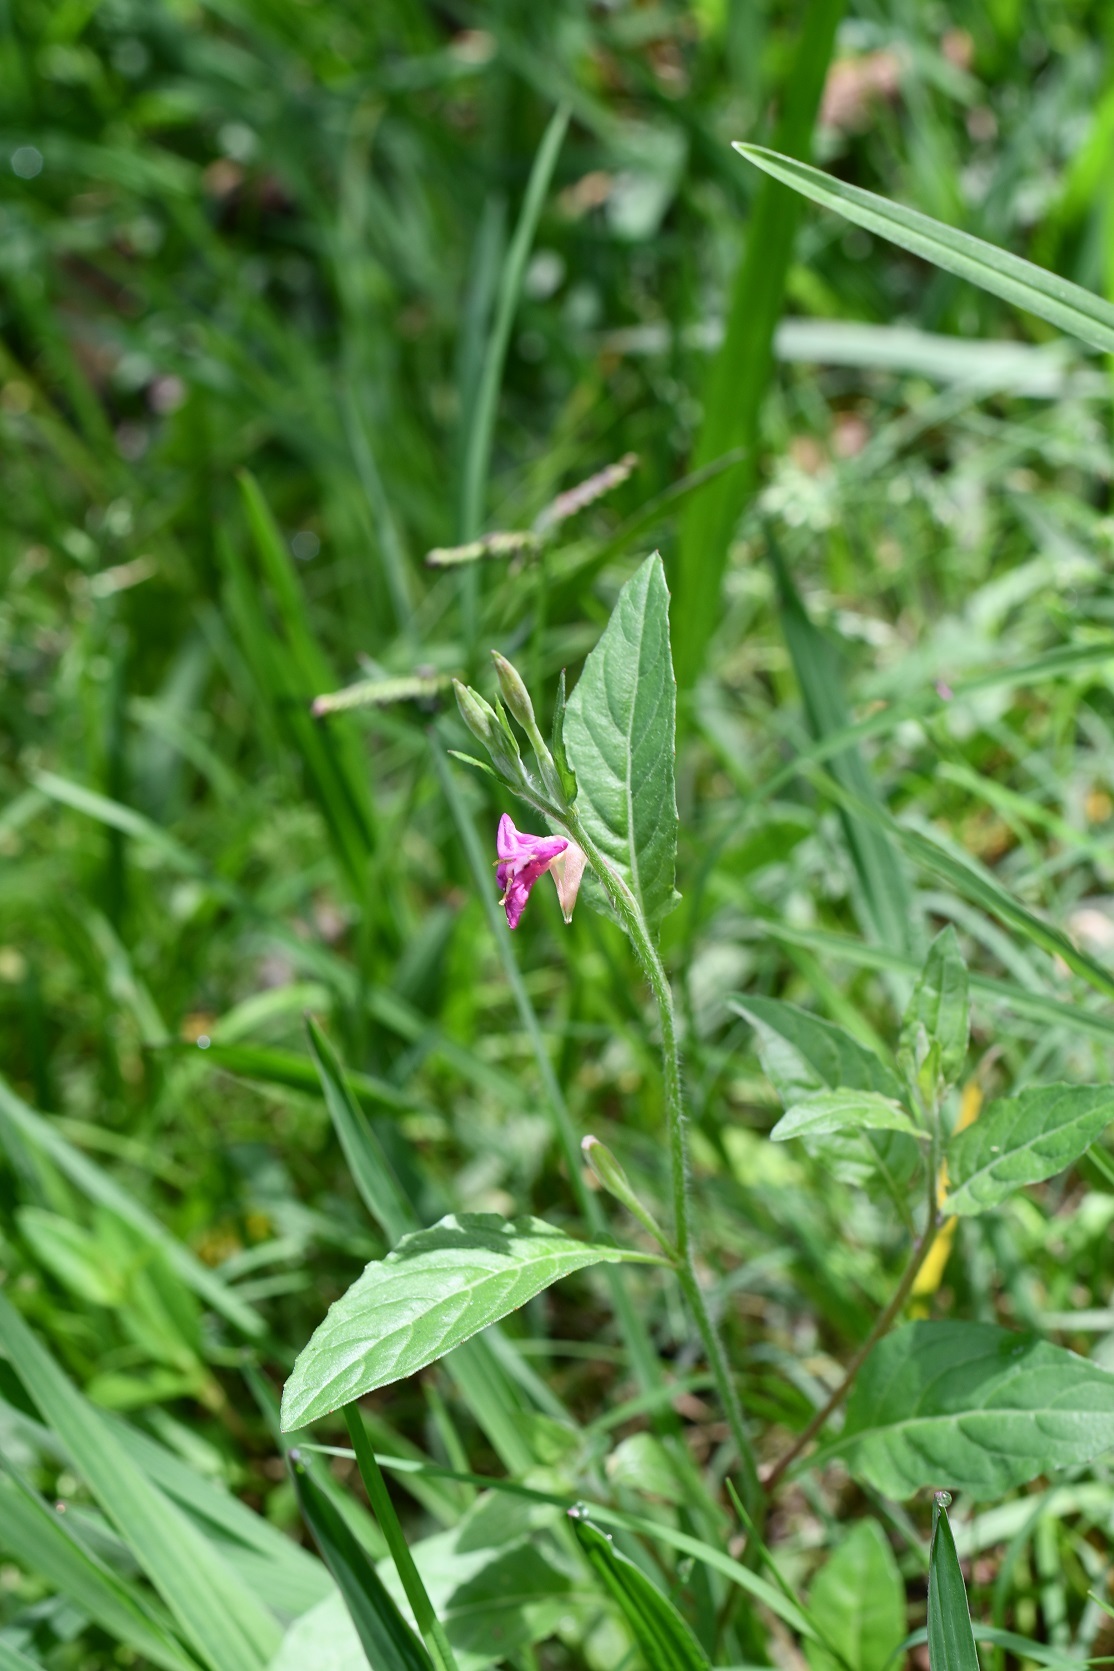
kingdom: Plantae
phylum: Tracheophyta
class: Magnoliopsida
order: Myrtales
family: Onagraceae
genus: Oenothera
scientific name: Oenothera rosea
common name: Rosy evening-primrose
